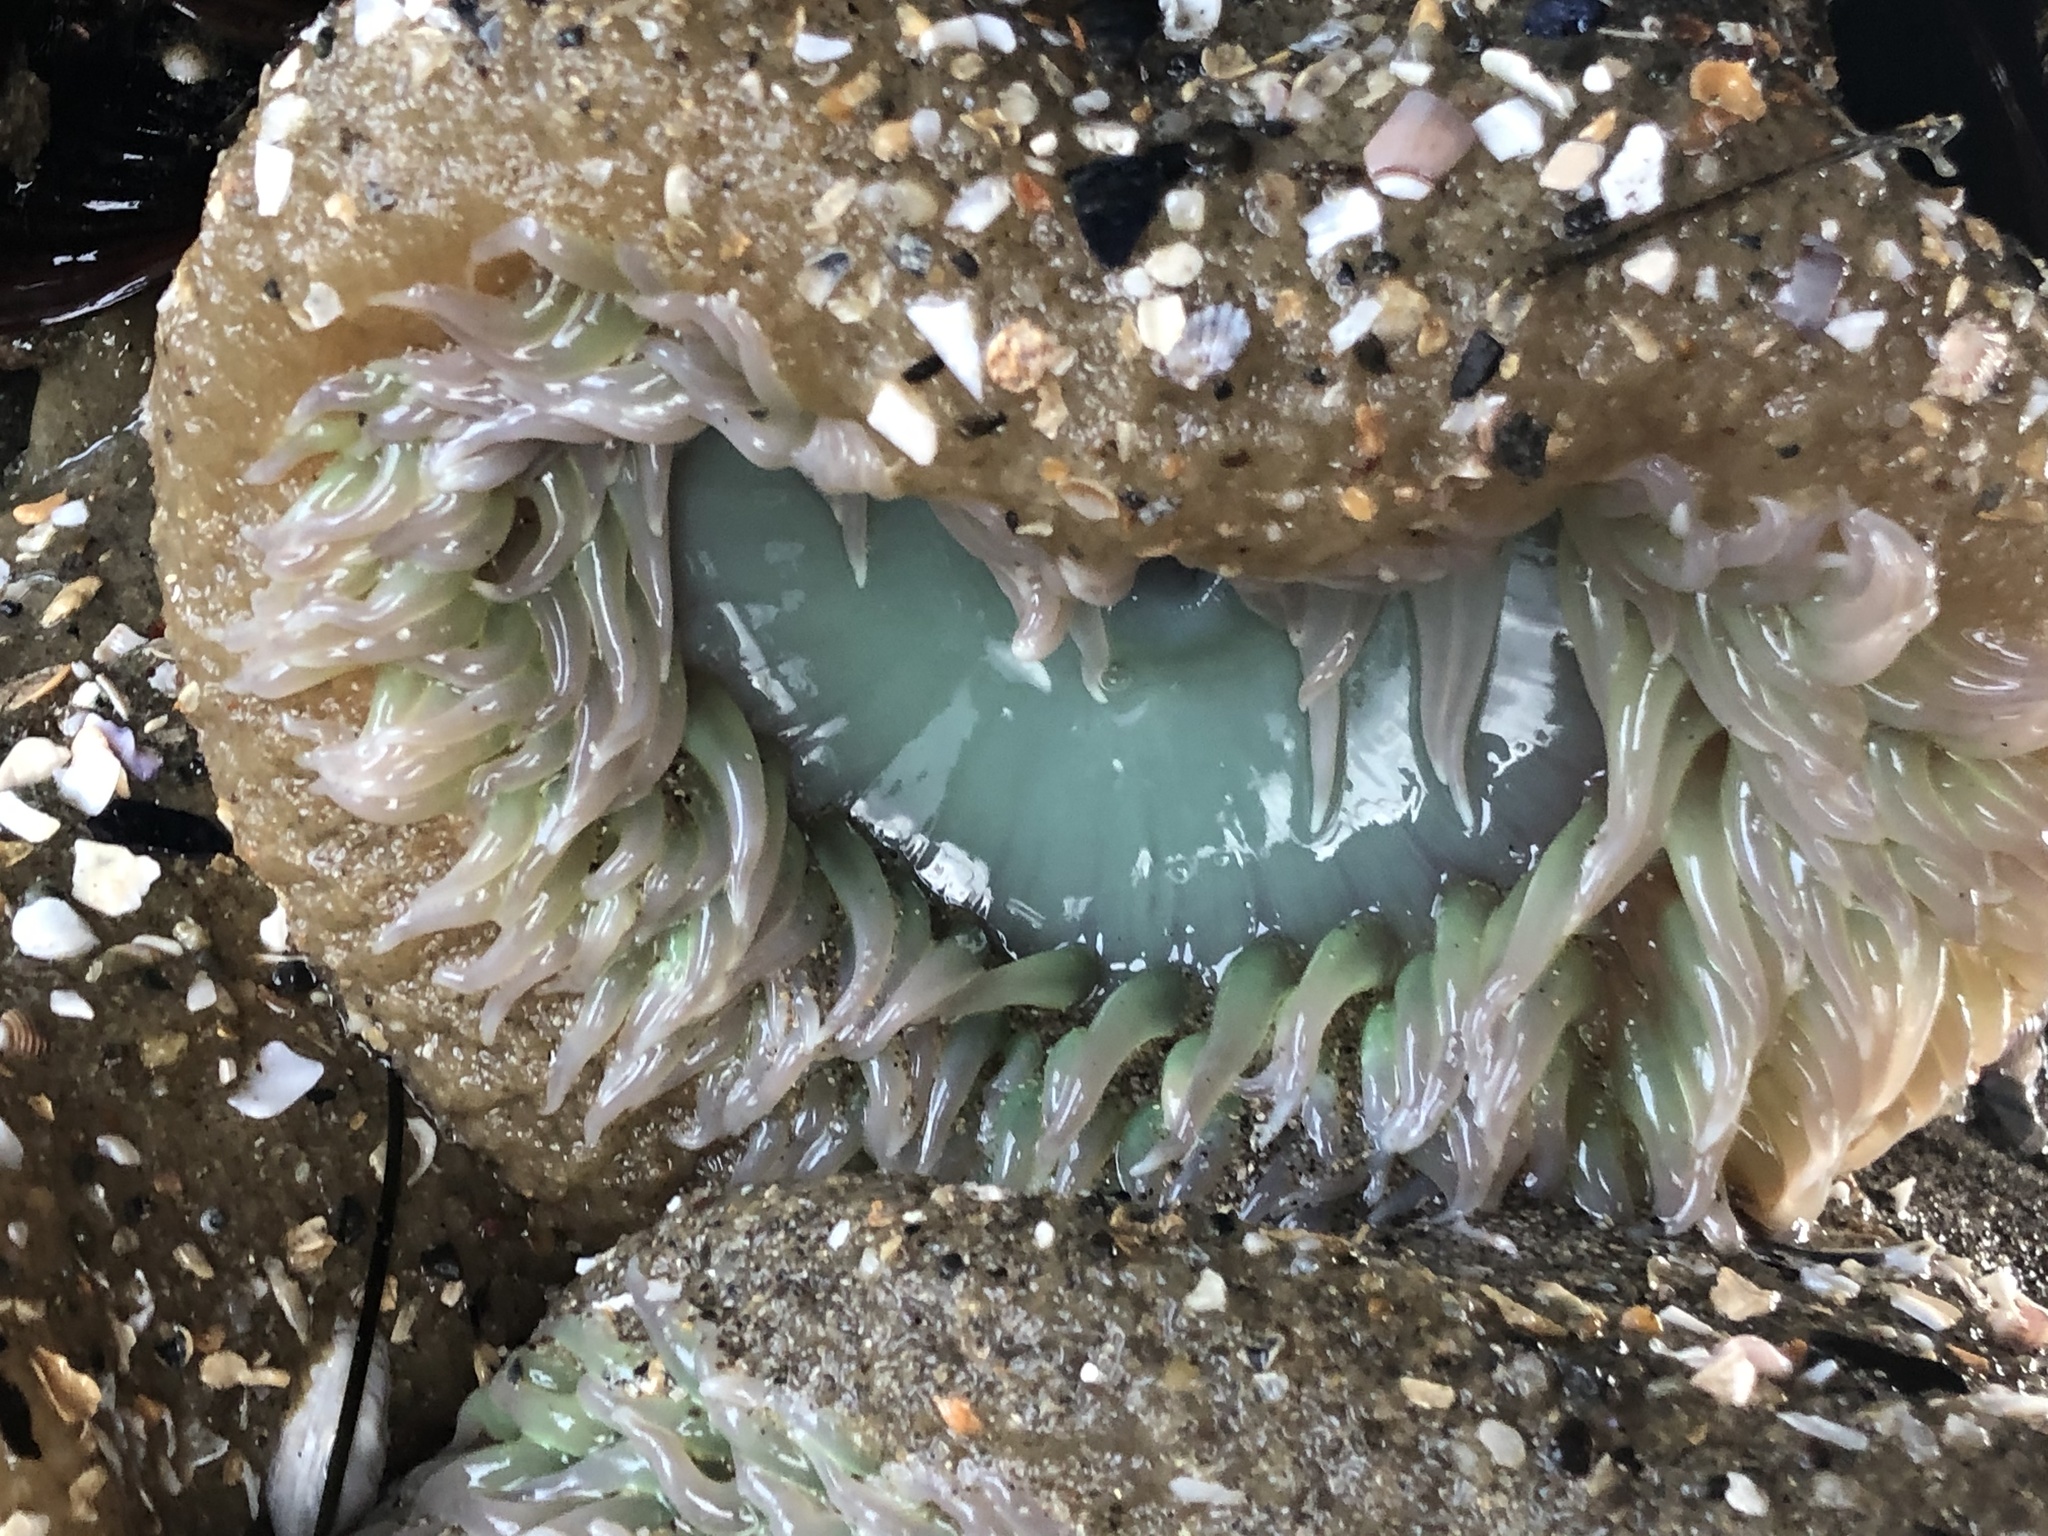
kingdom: Animalia
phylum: Cnidaria
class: Anthozoa
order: Actiniaria
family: Actiniidae
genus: Anthopleura
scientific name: Anthopleura xanthogrammica
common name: Giant green anemone
